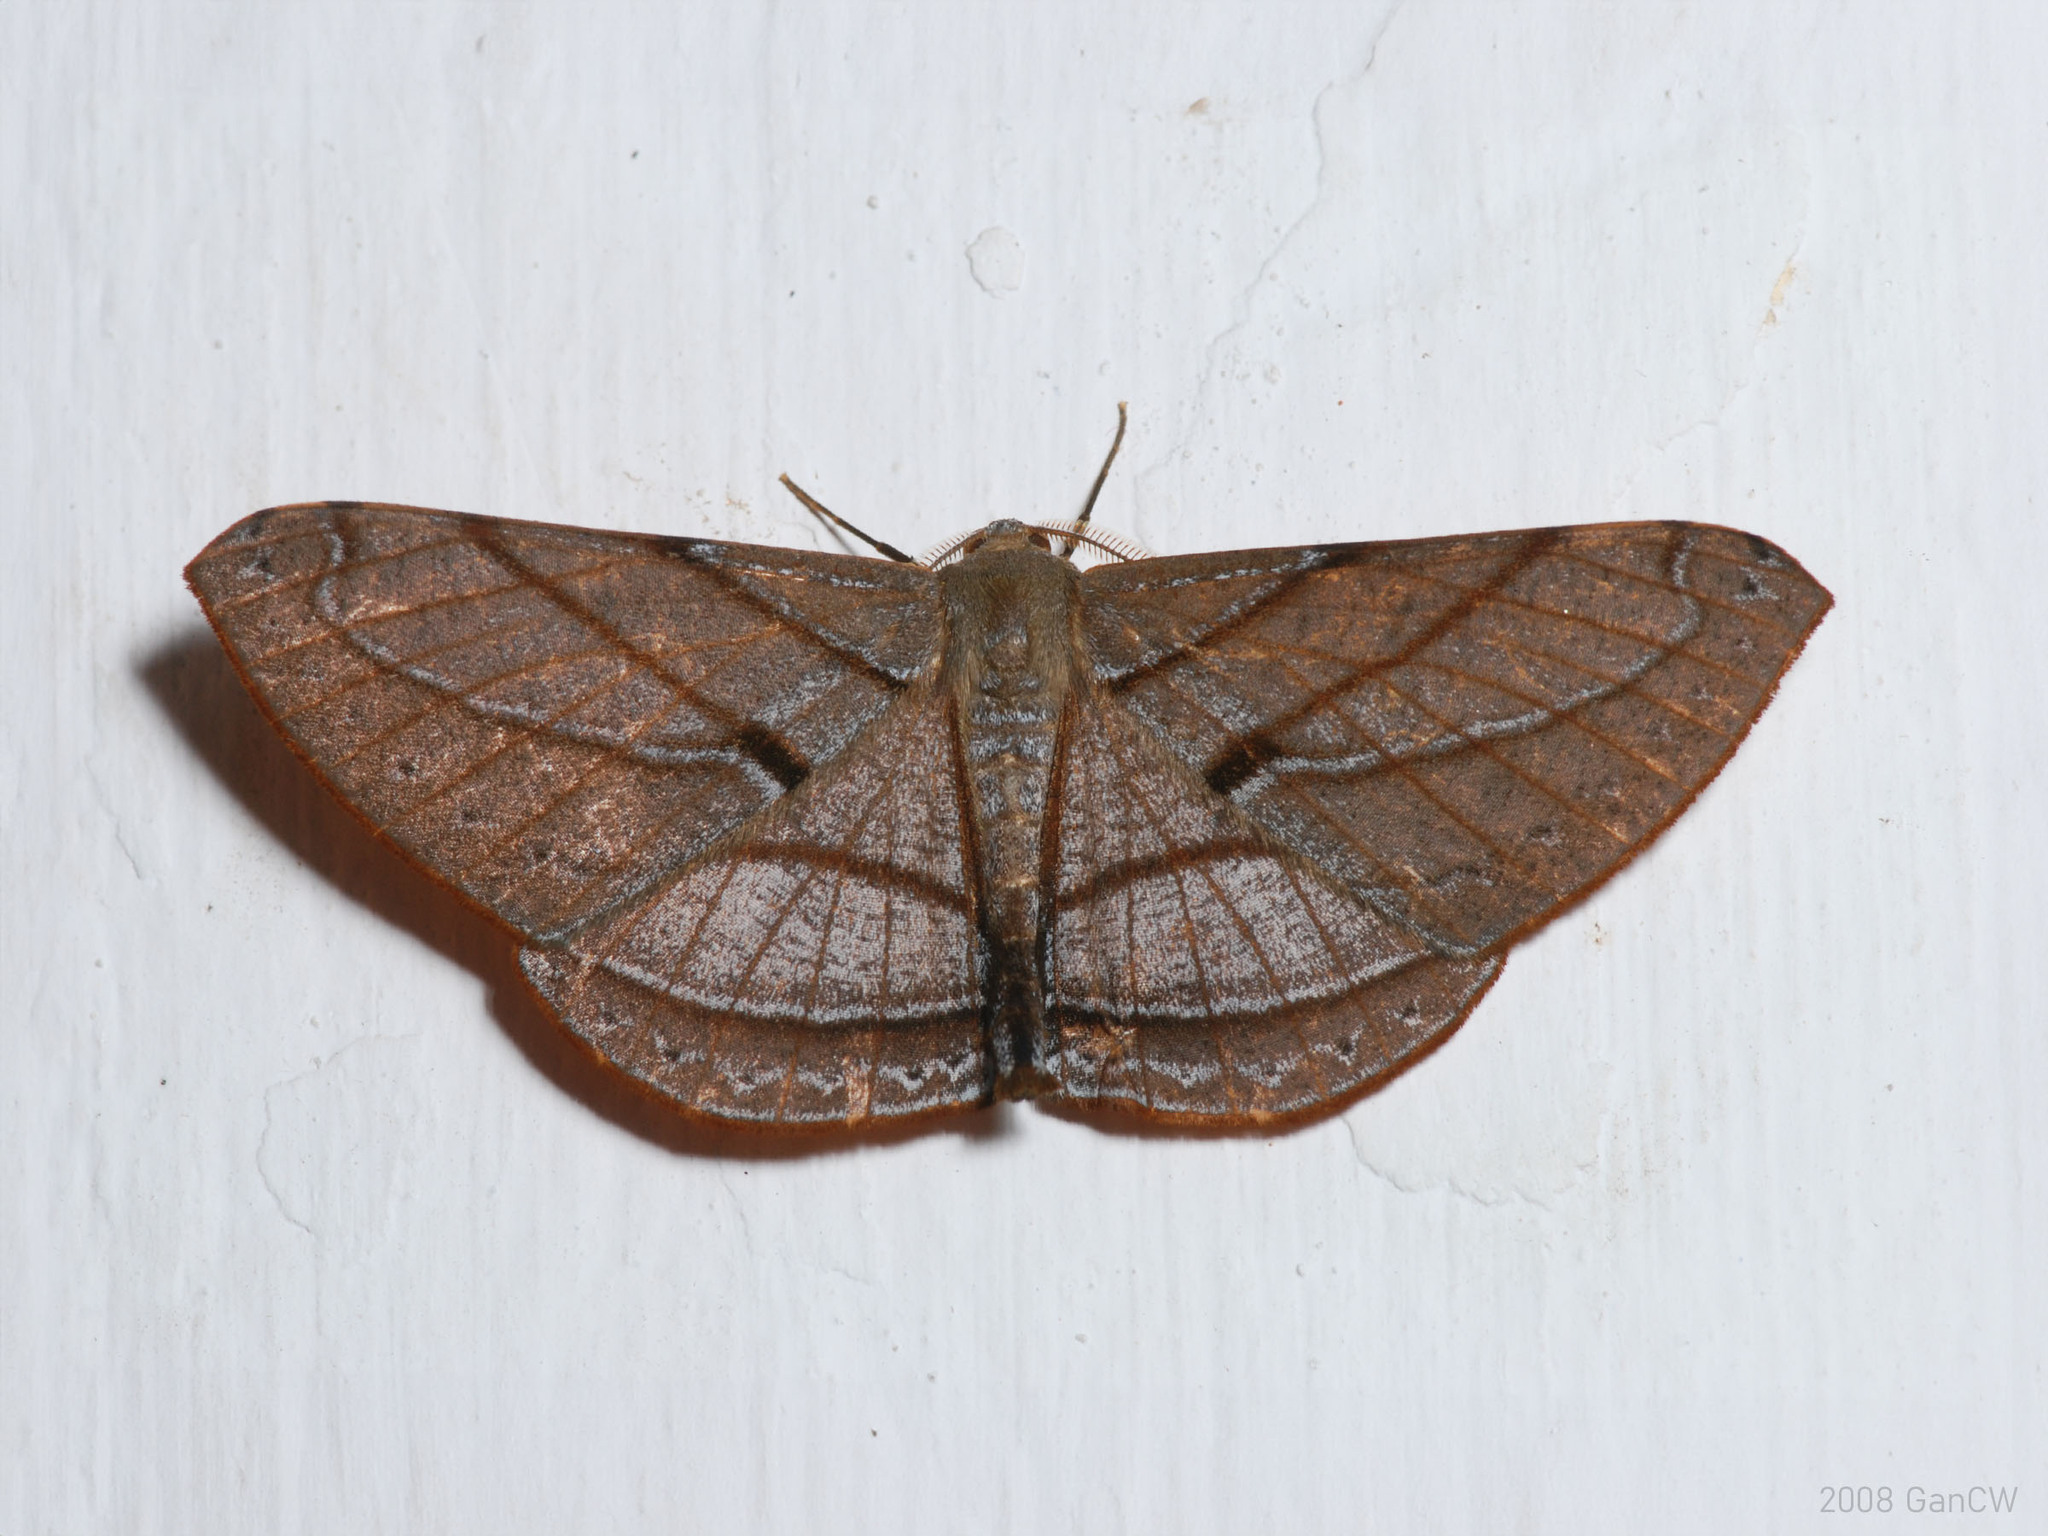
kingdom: Animalia
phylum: Arthropoda
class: Insecta
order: Lepidoptera
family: Geometridae
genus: Dalima
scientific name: Dalima patularia
